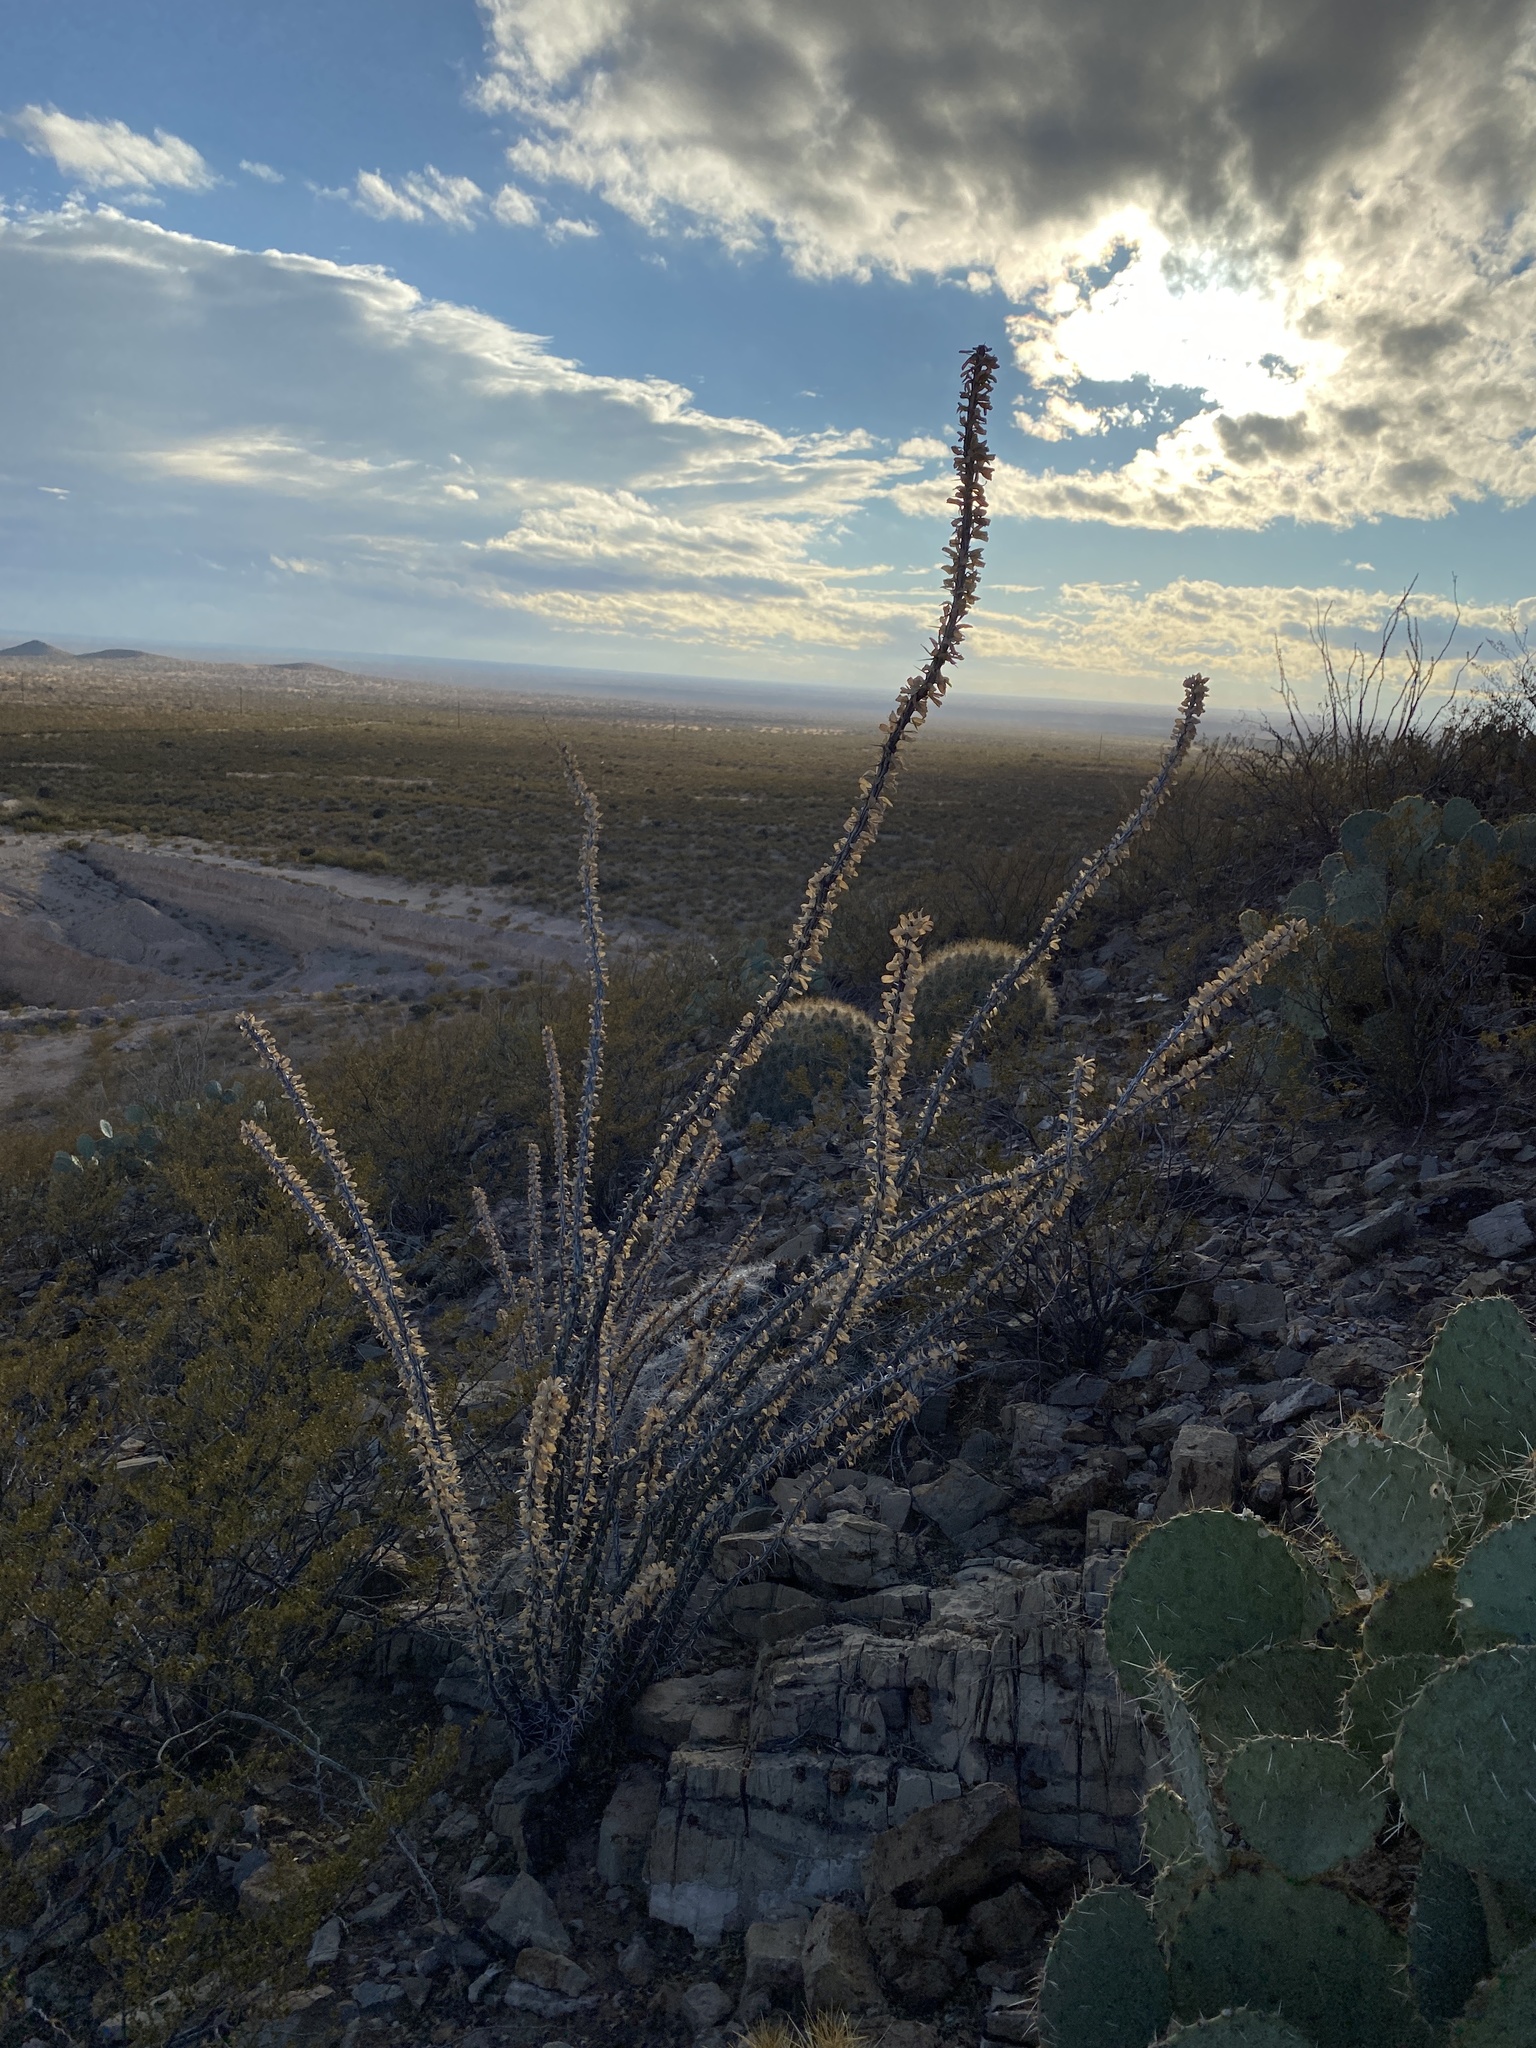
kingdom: Plantae
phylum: Tracheophyta
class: Magnoliopsida
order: Ericales
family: Fouquieriaceae
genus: Fouquieria
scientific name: Fouquieria splendens
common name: Vine-cactus
